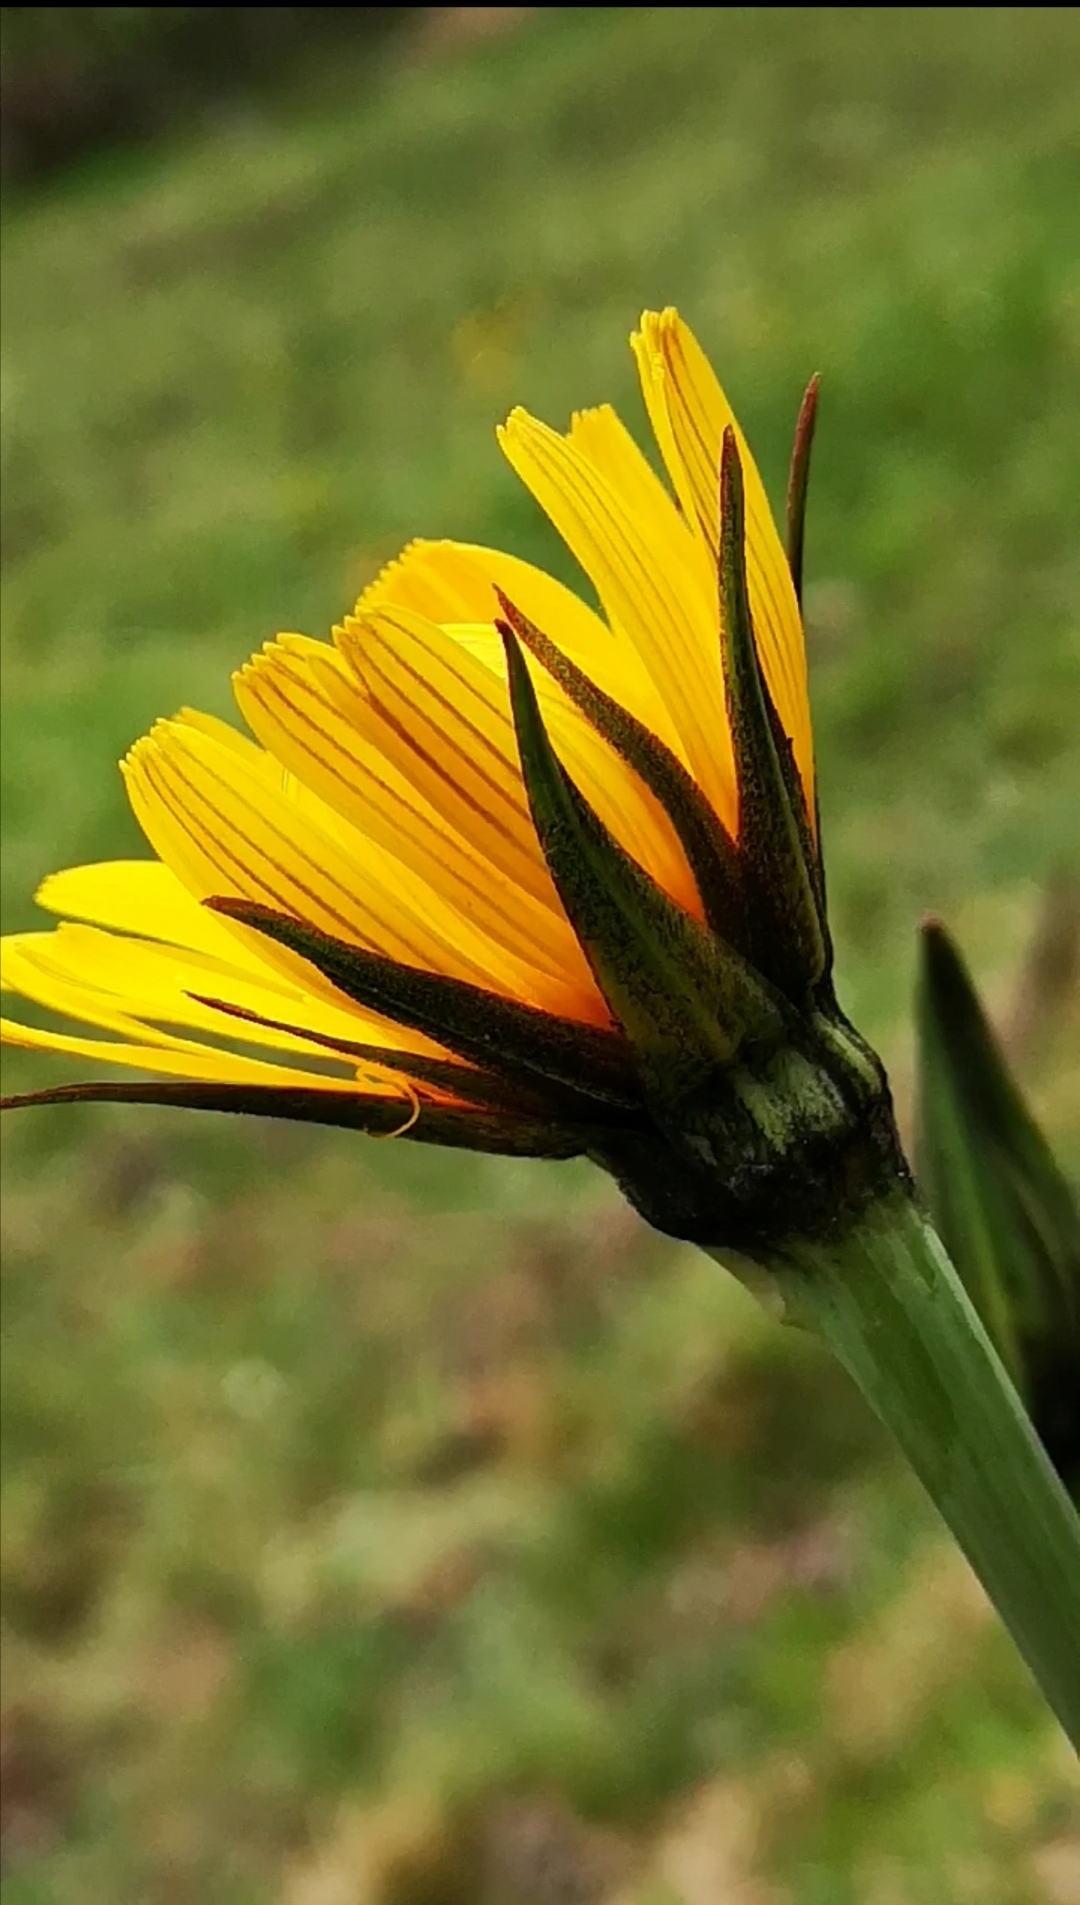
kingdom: Plantae
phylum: Tracheophyta
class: Magnoliopsida
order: Asterales
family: Asteraceae
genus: Tragopogon
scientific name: Tragopogon orientalis
